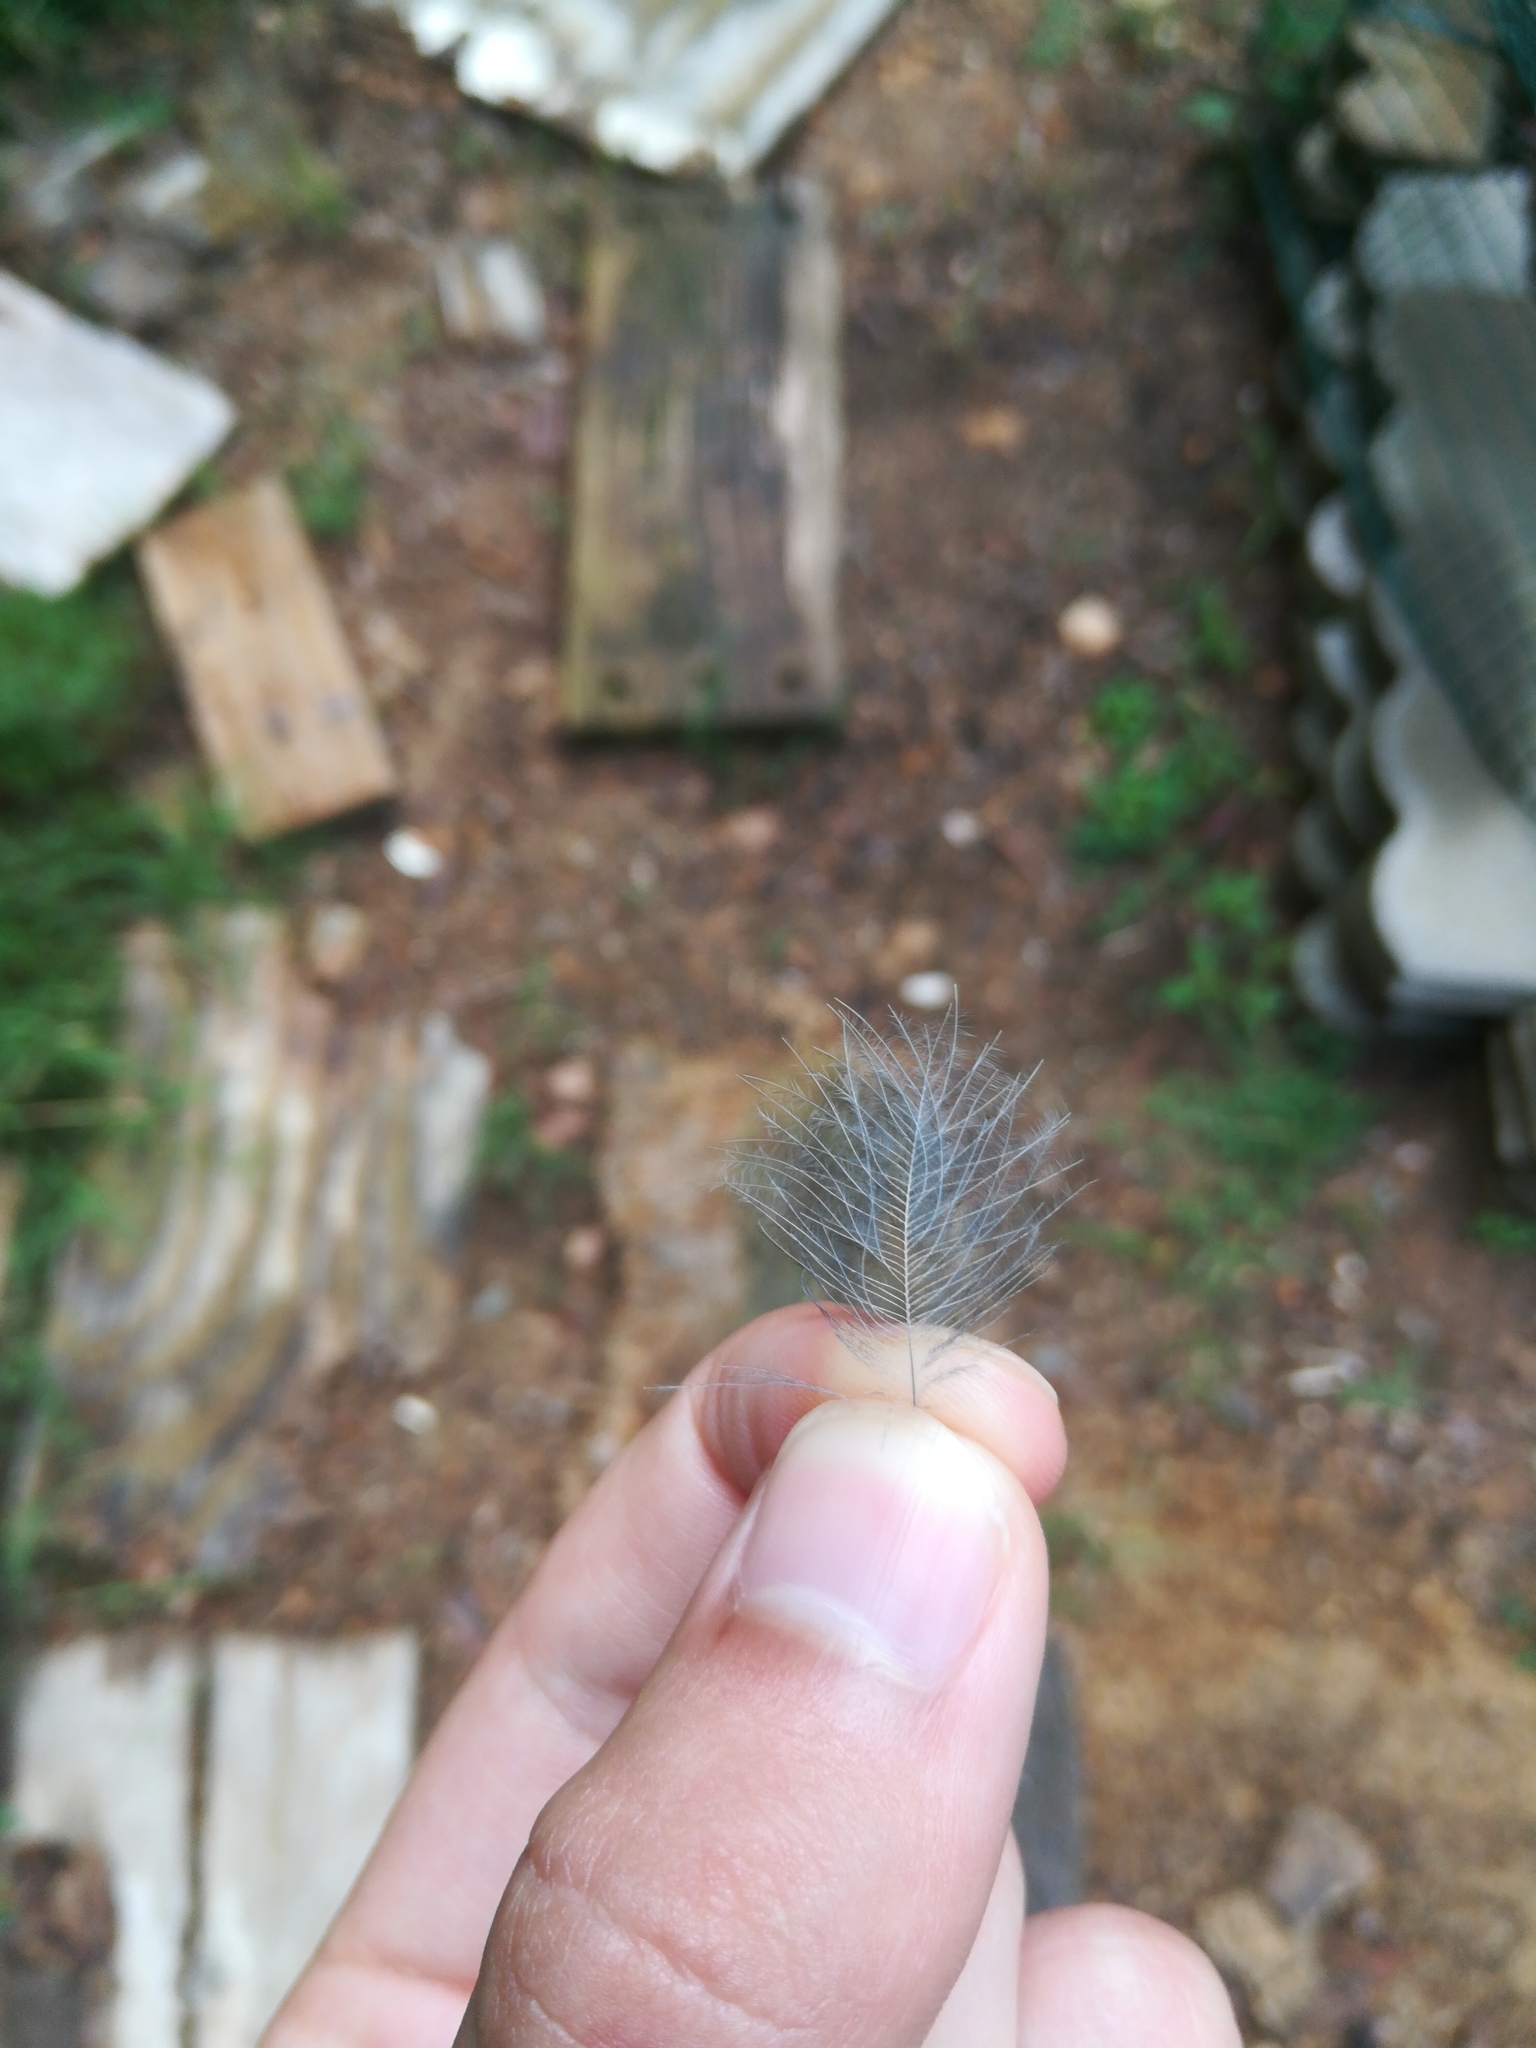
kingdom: Animalia
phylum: Chordata
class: Aves
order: Passeriformes
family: Corvidae
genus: Cyanocitta
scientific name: Cyanocitta cristata
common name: Blue jay
